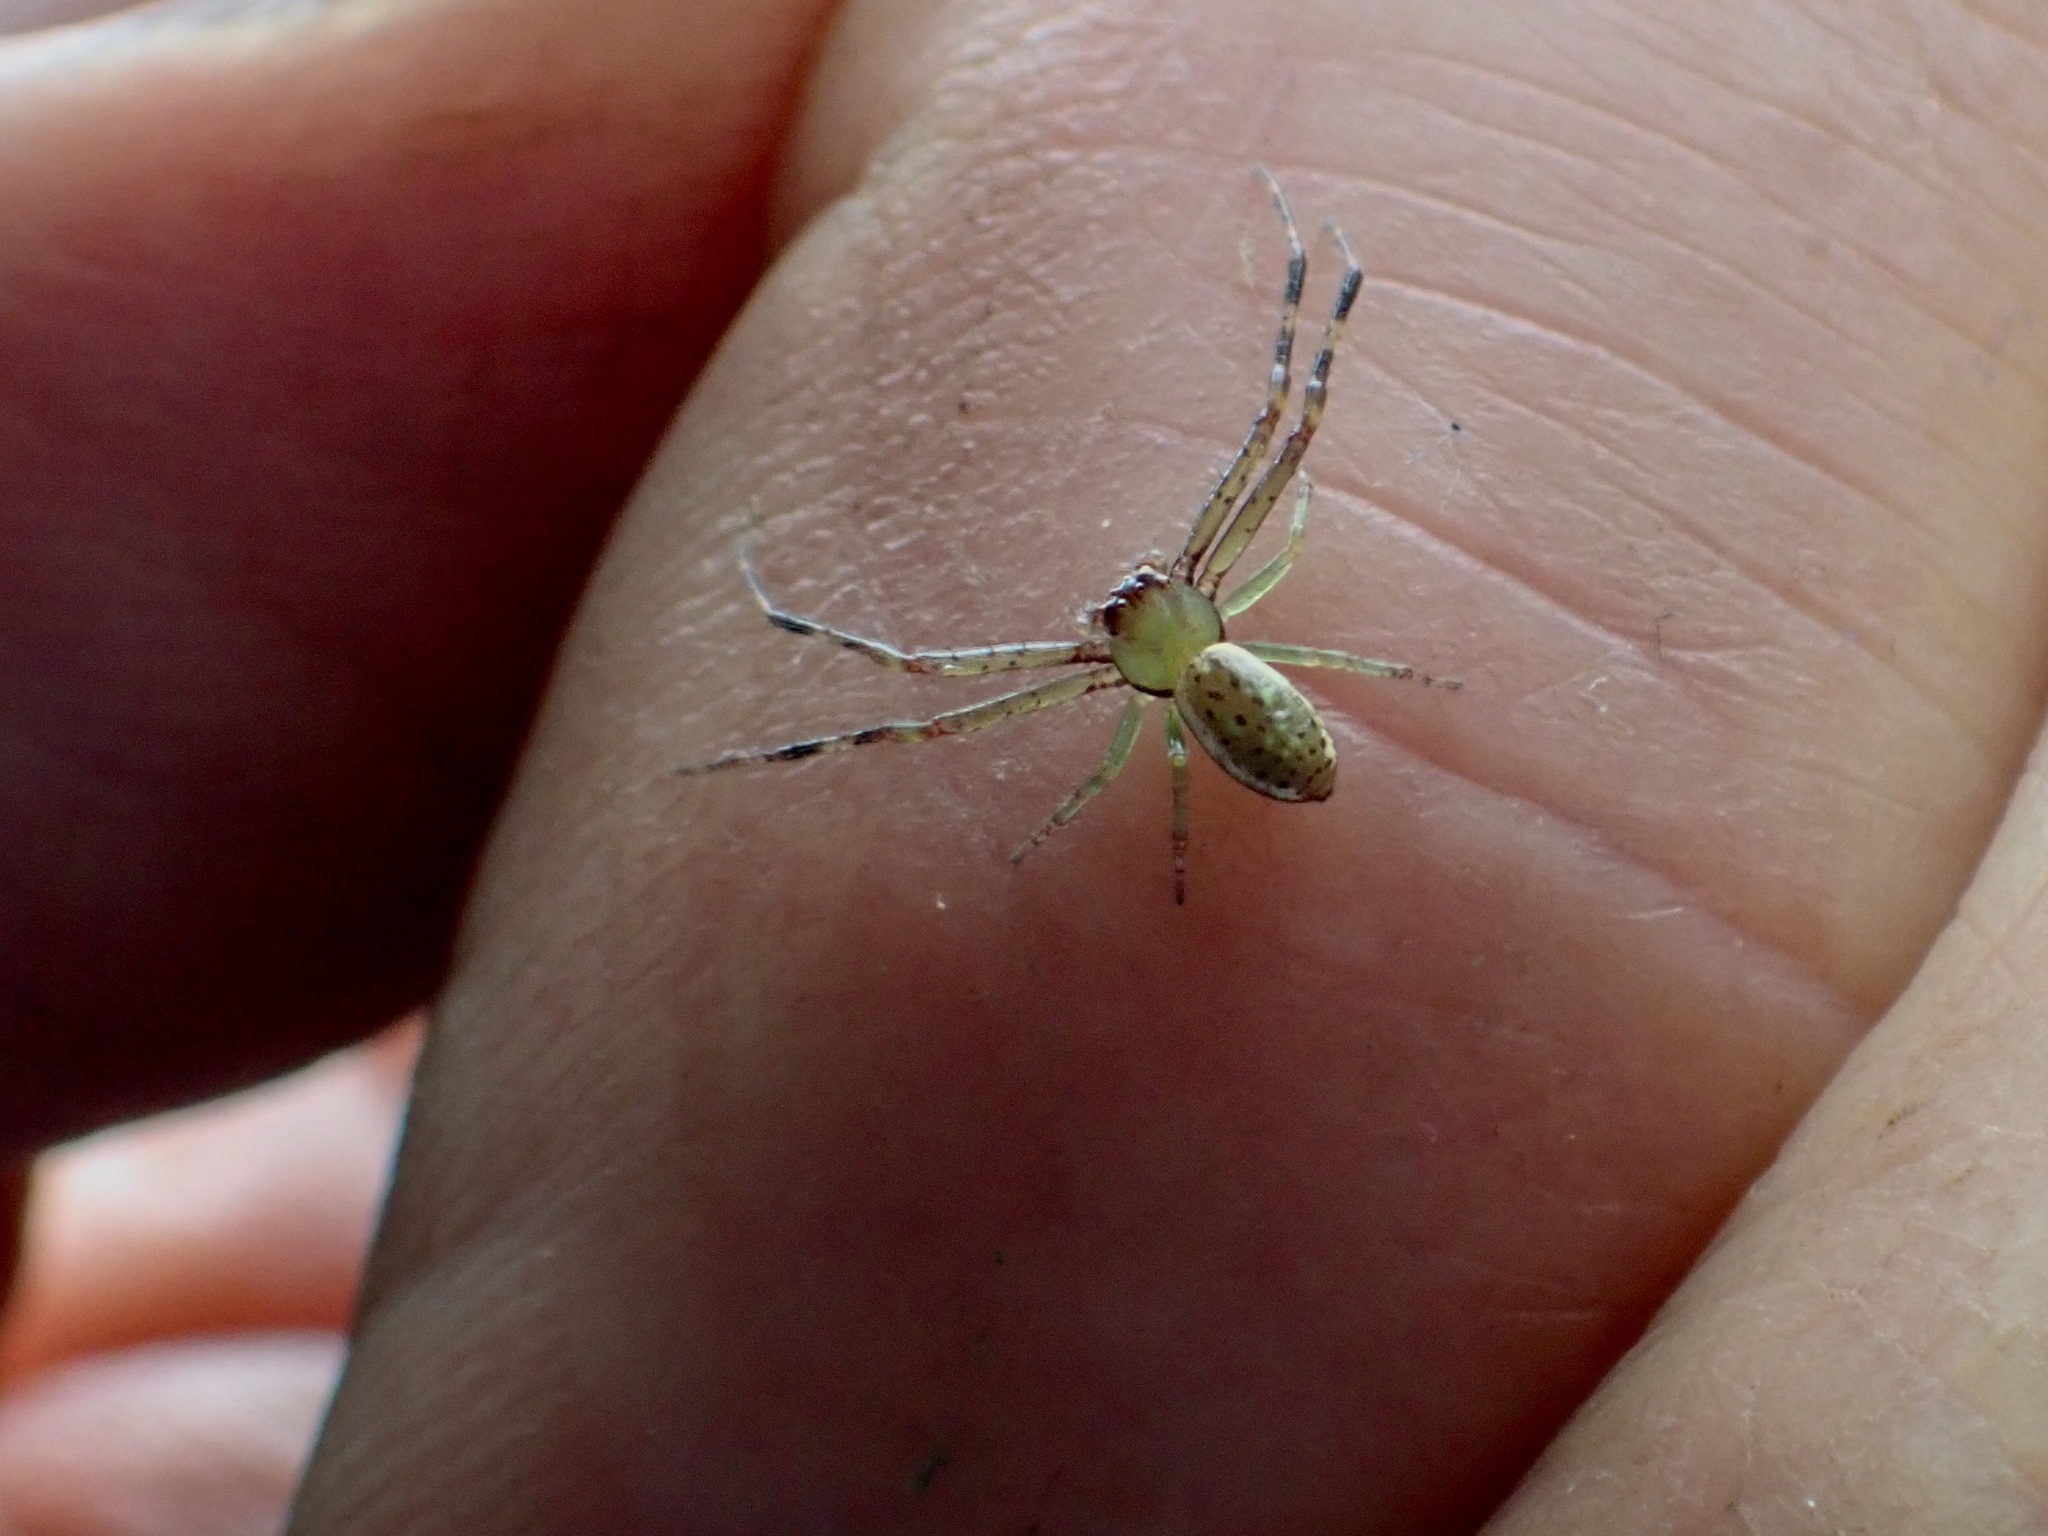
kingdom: Animalia
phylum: Arthropoda
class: Arachnida
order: Araneae
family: Thomisidae
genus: Diaea
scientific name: Diaea ambara
